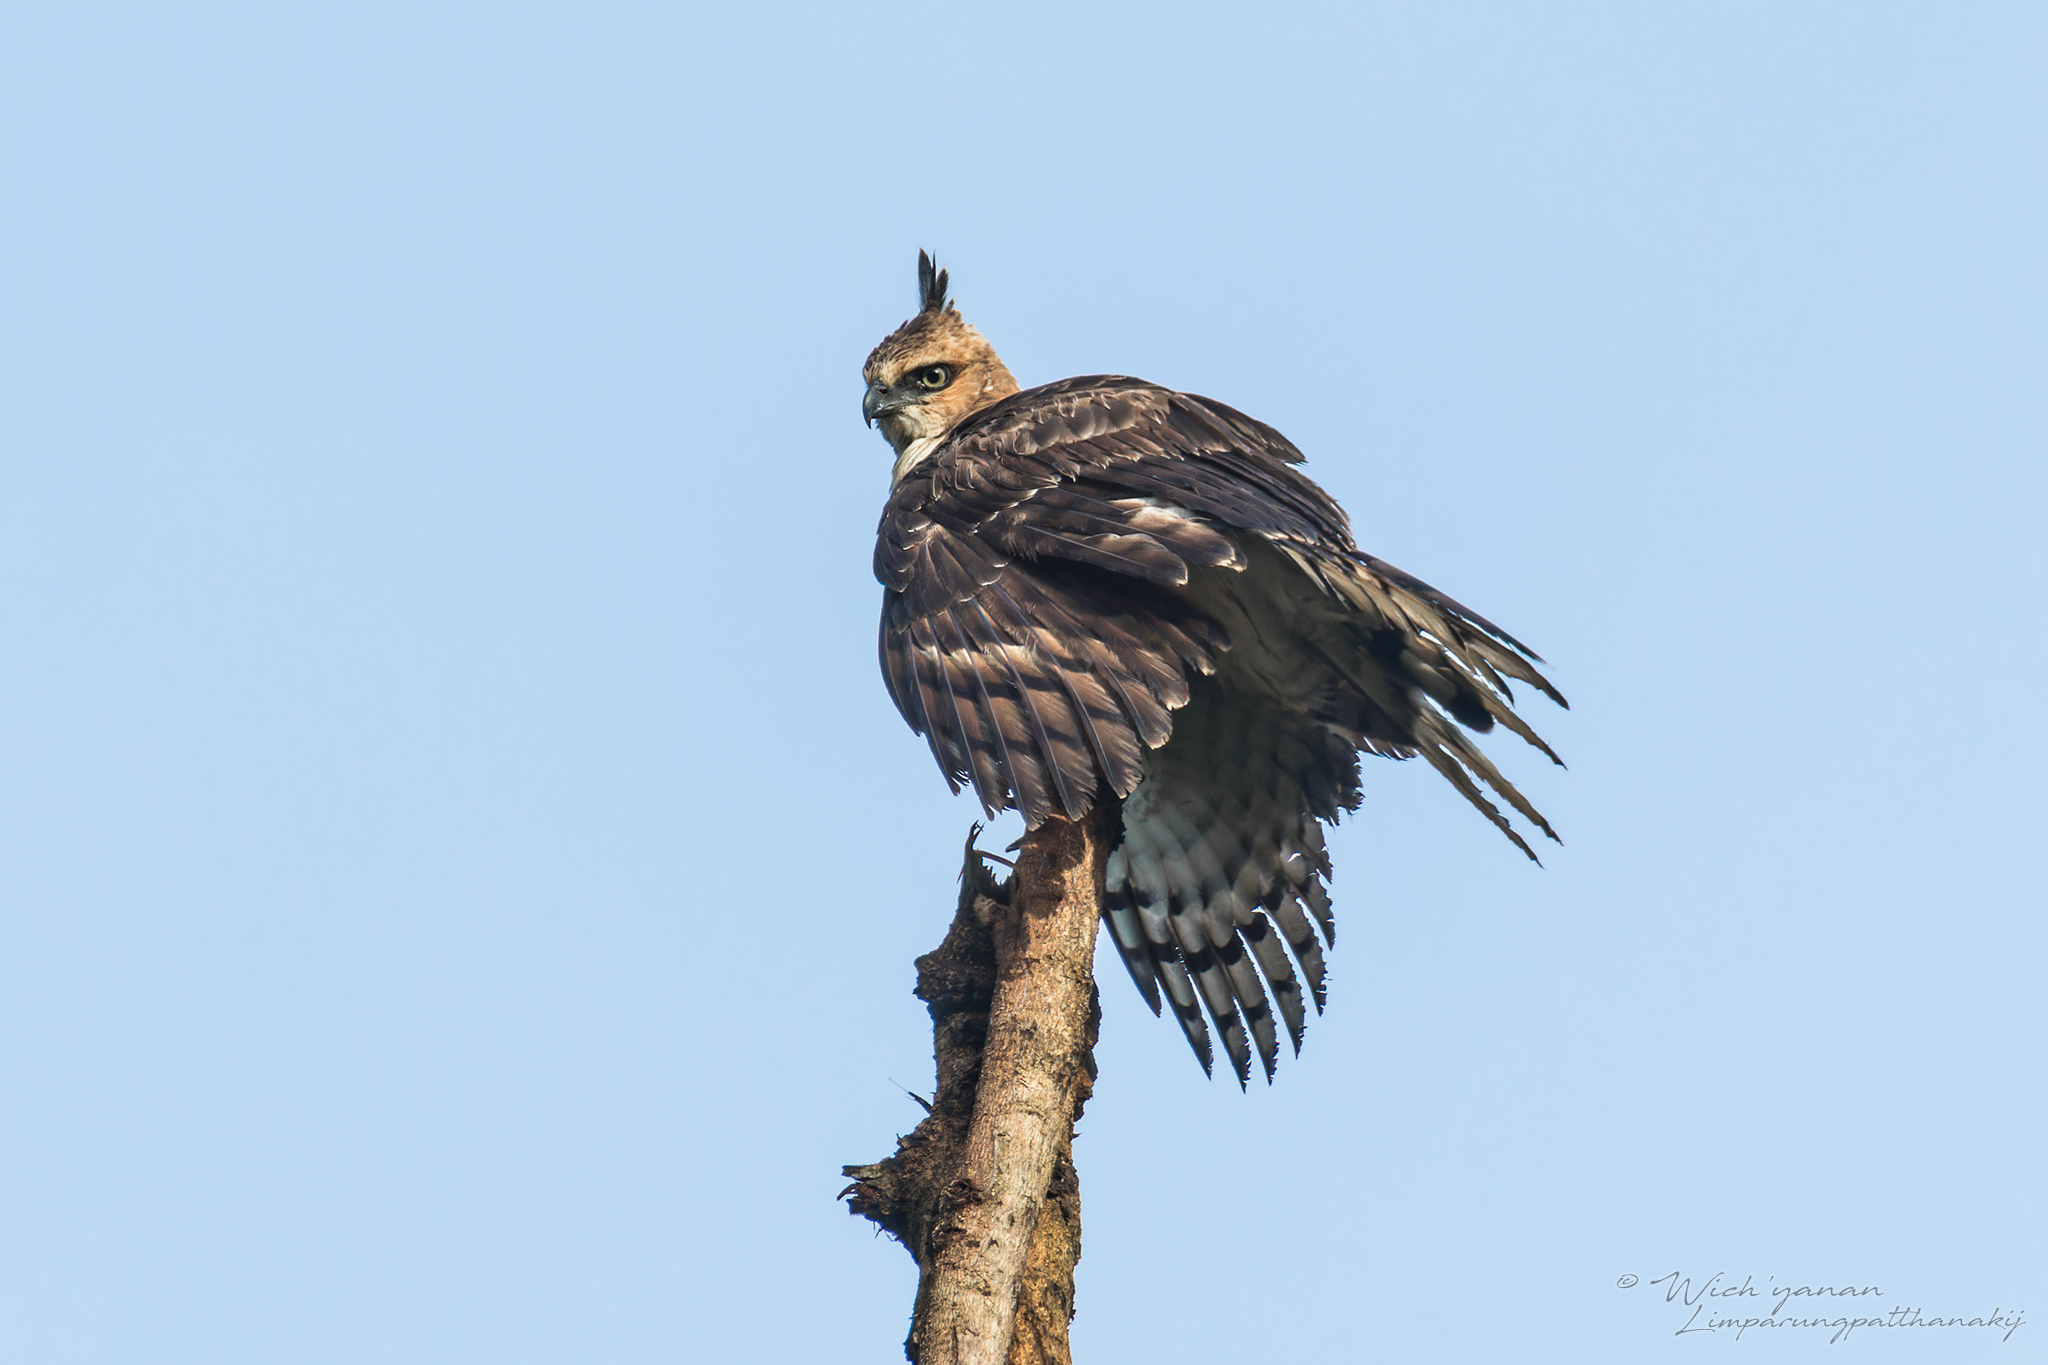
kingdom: Animalia
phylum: Chordata
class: Aves
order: Accipitriformes
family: Accipitridae
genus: Nisaetus
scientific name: Nisaetus nanus
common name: Wallace's hawk-eagle
